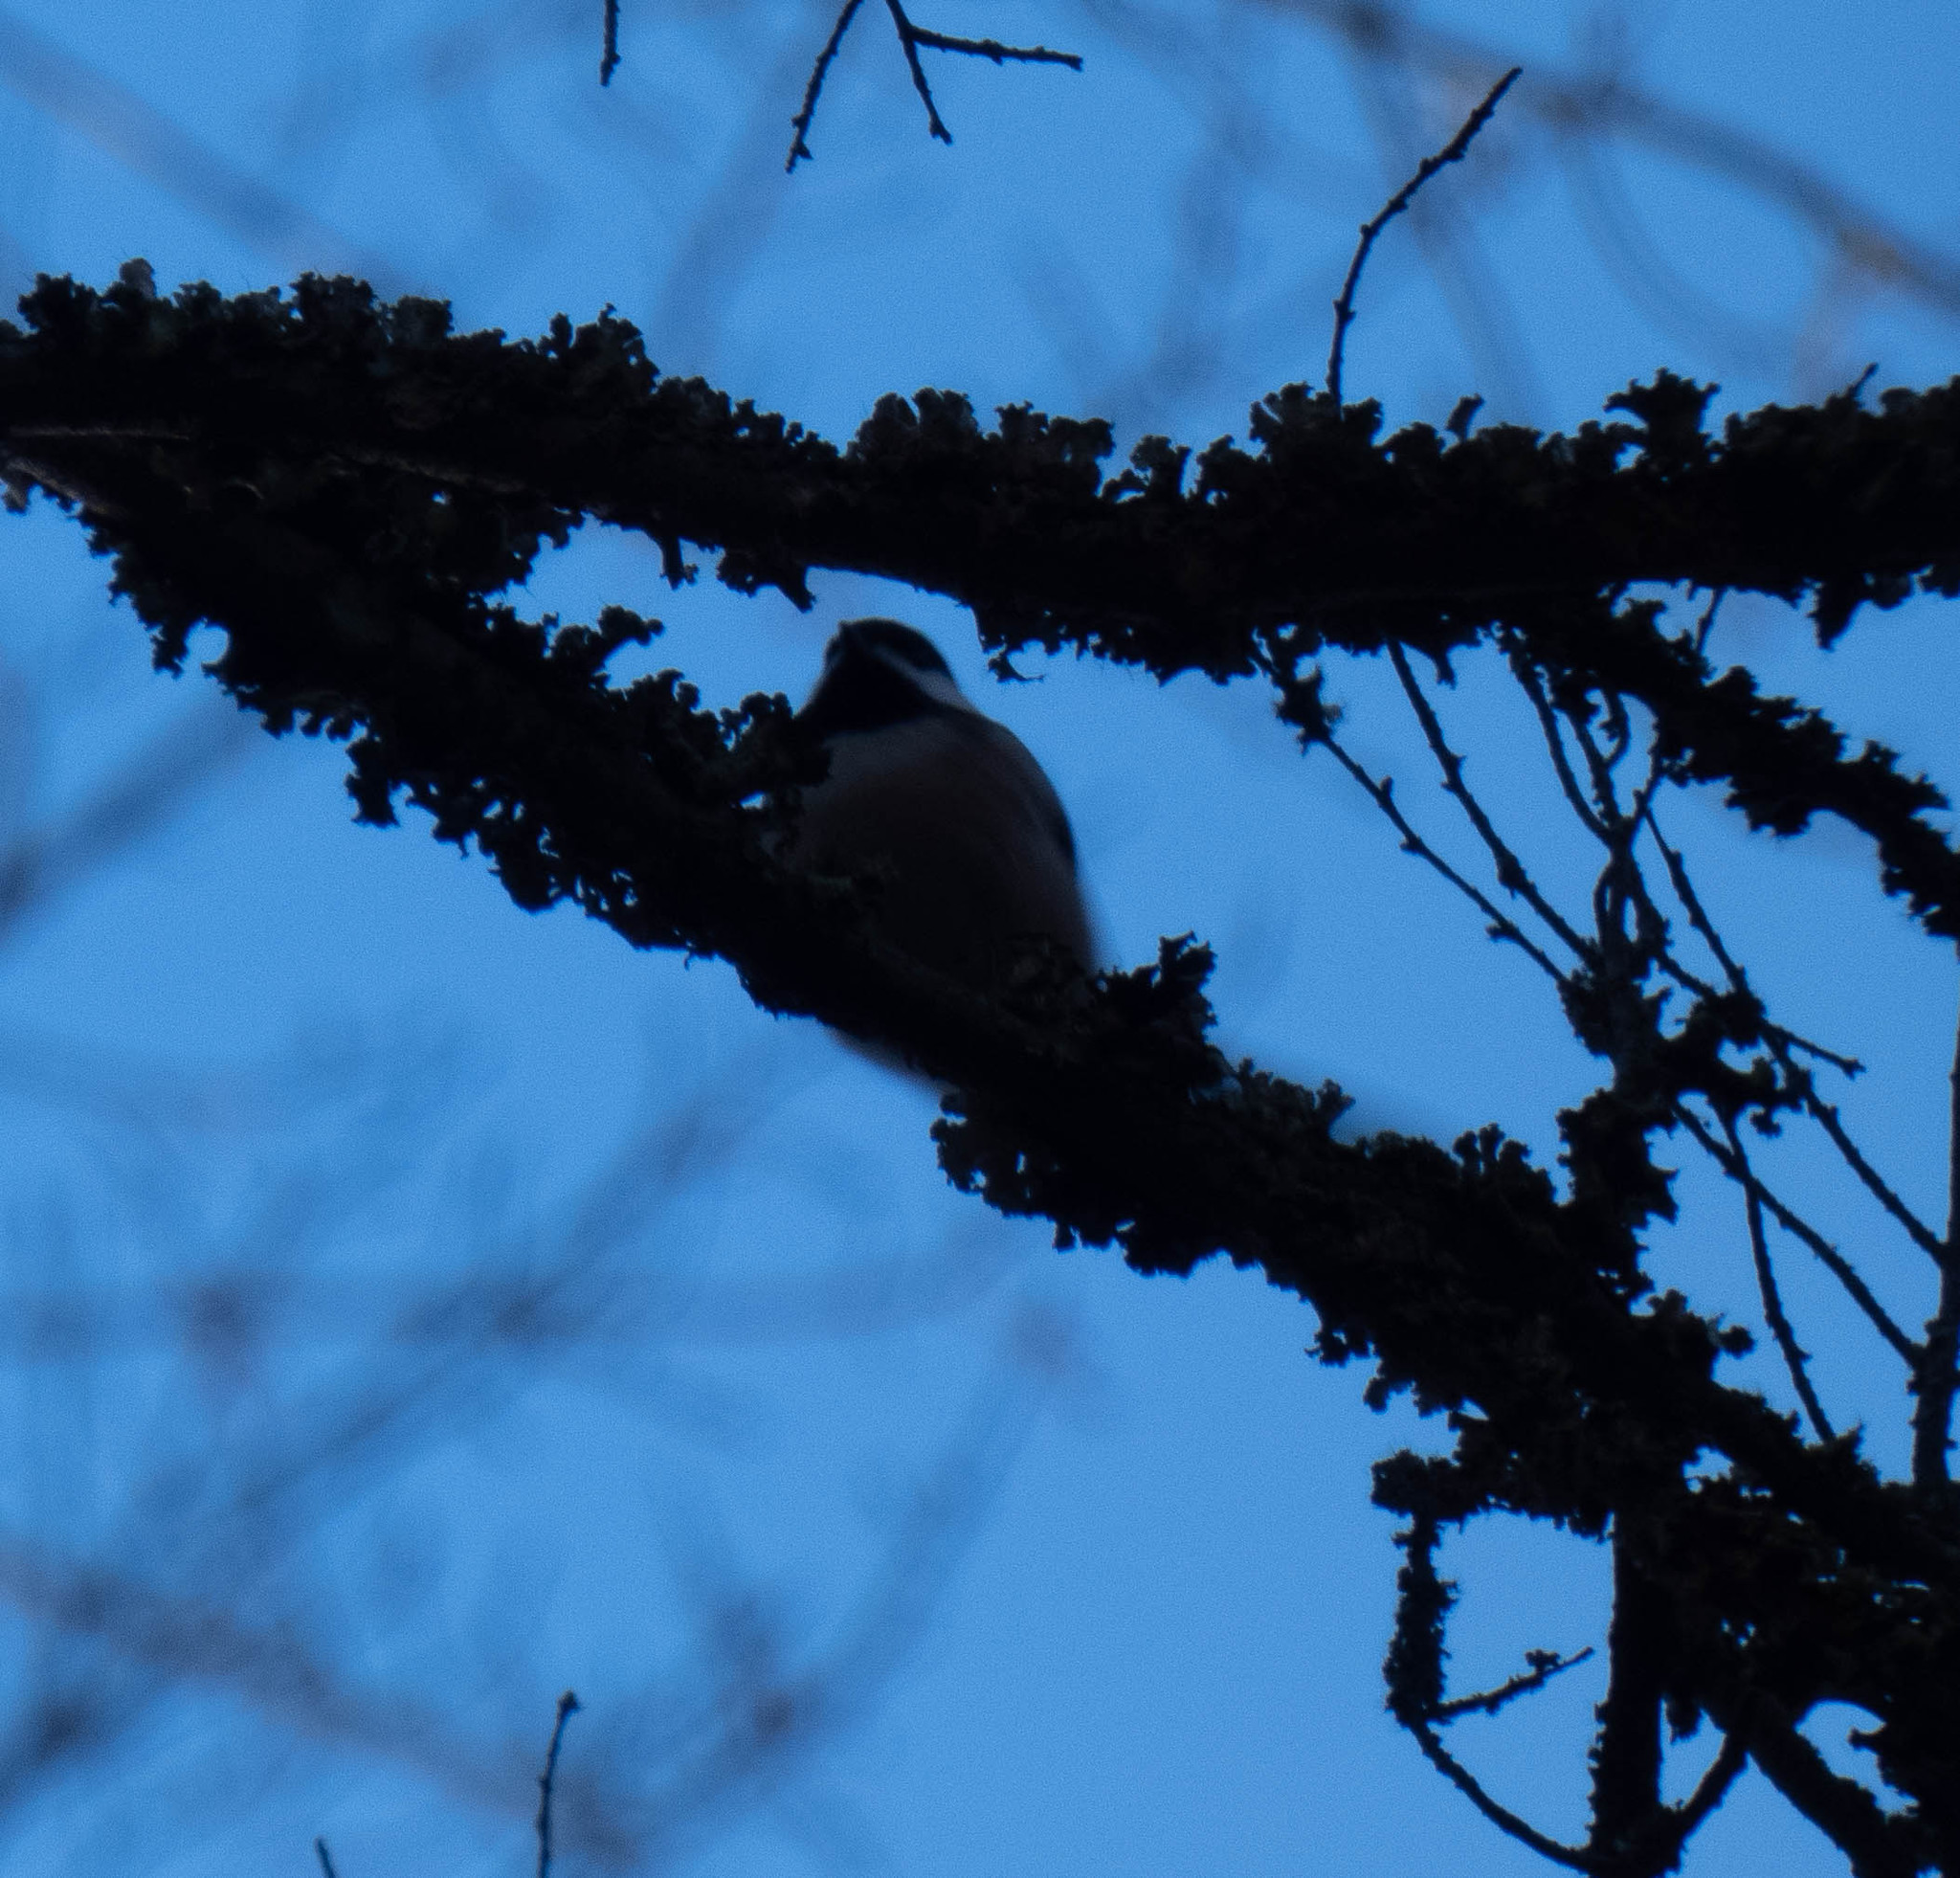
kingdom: Animalia
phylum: Chordata
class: Aves
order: Passeriformes
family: Paridae
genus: Poecile
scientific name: Poecile carolinensis
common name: Carolina chickadee
